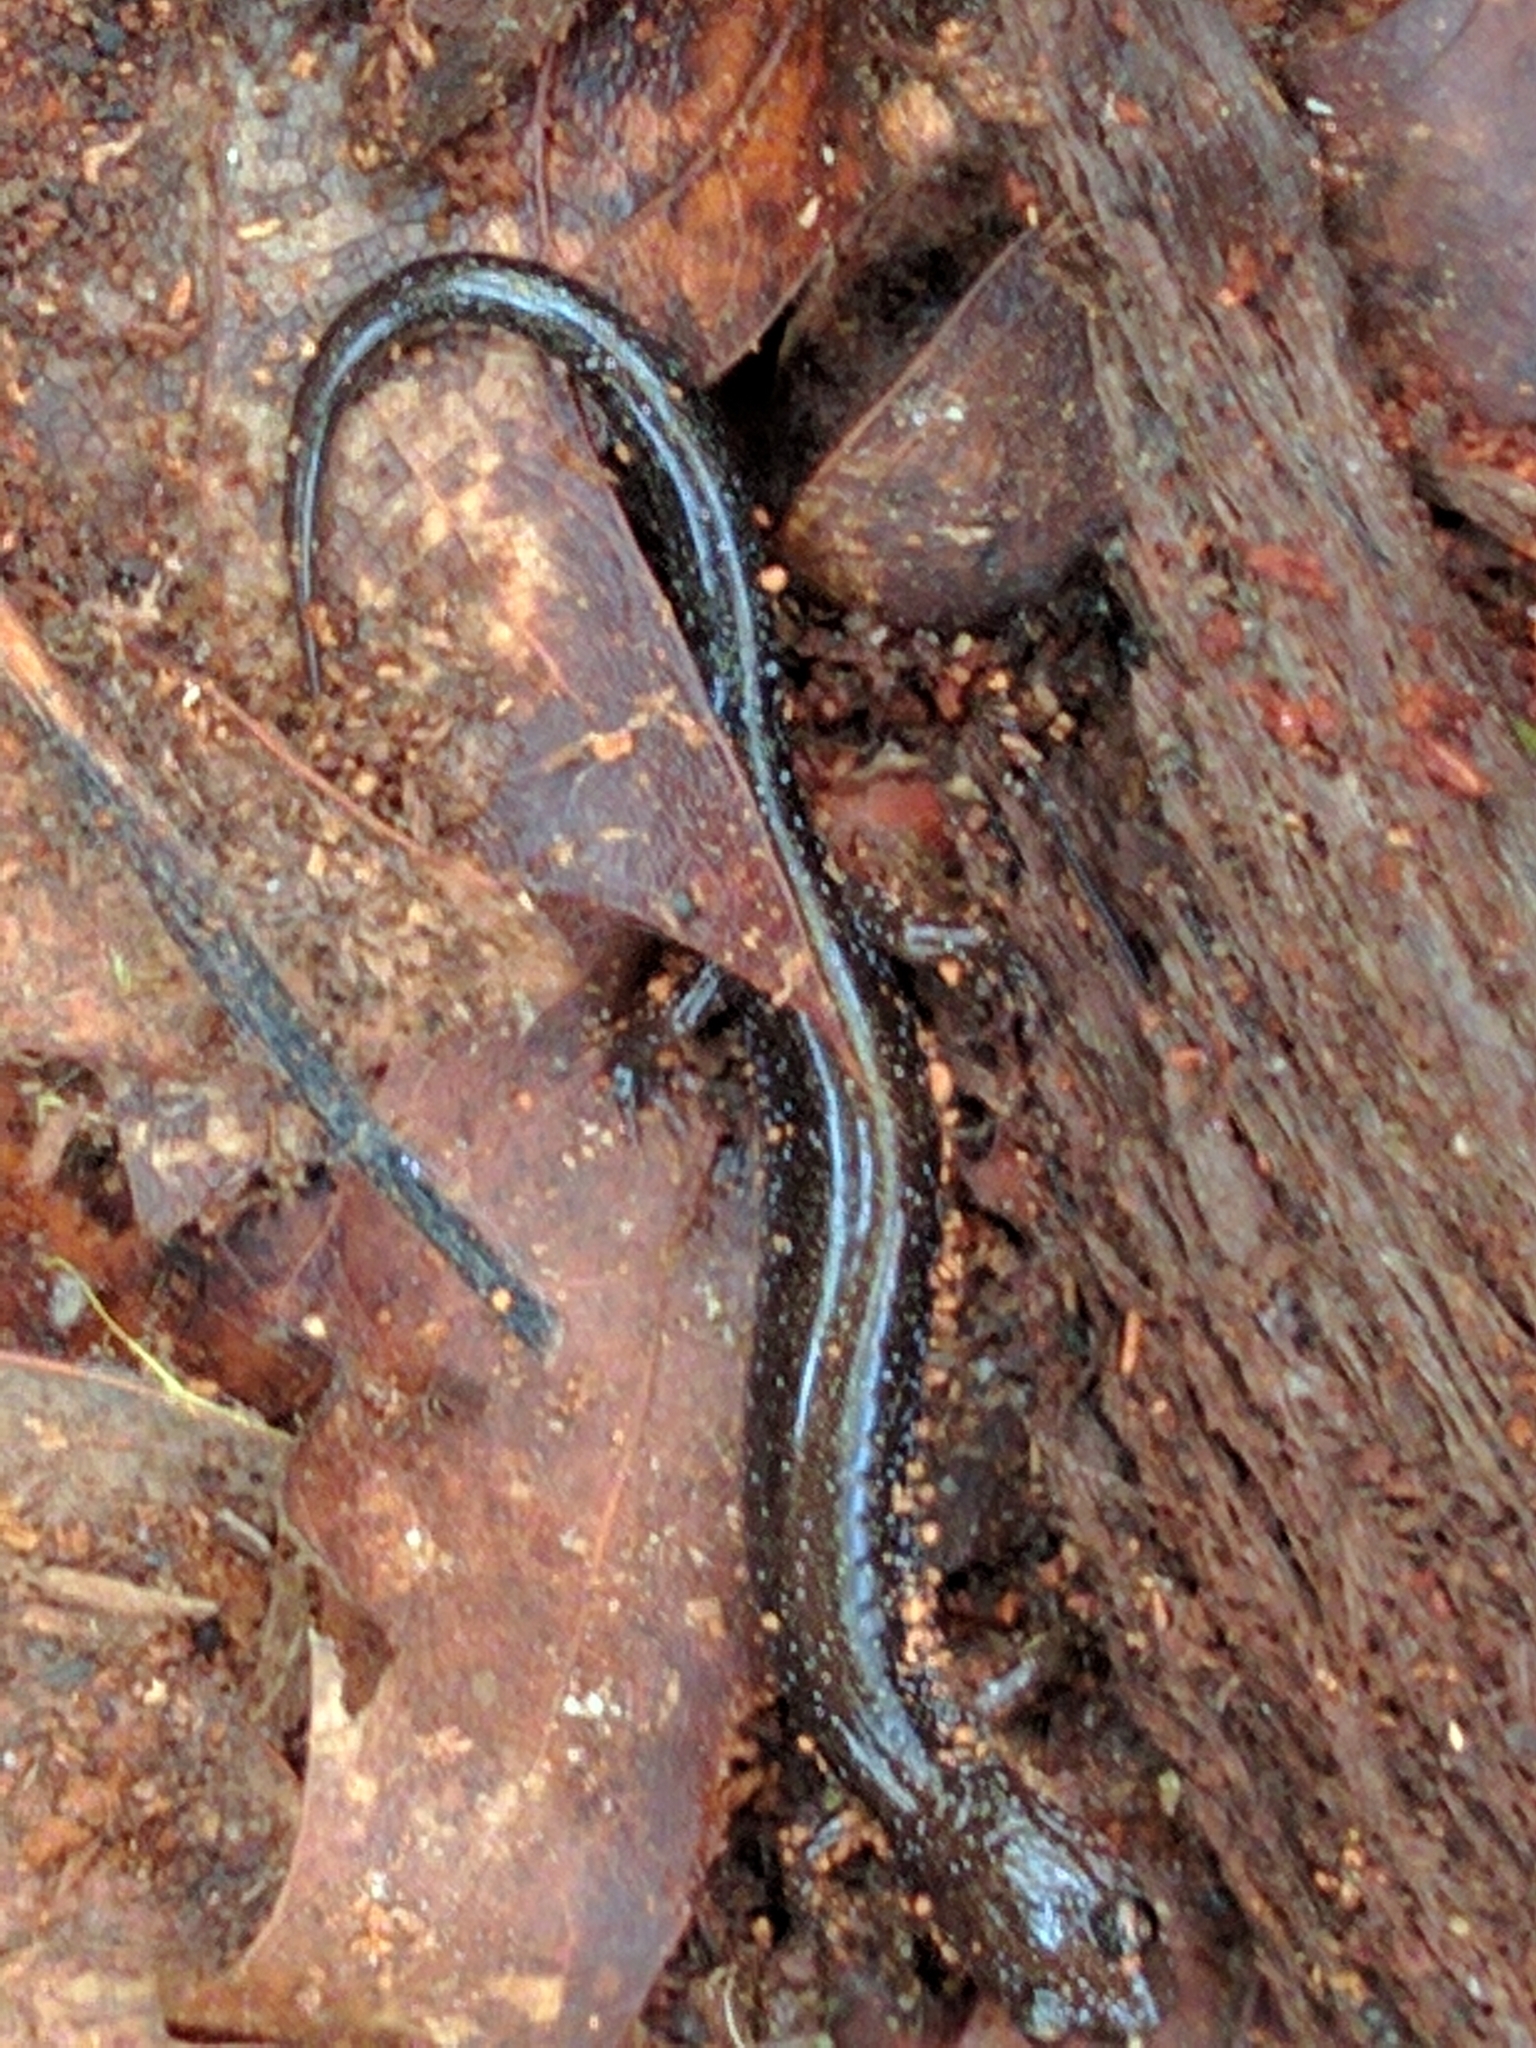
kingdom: Animalia
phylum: Chordata
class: Amphibia
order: Caudata
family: Plethodontidae
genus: Plethodon
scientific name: Plethodon cinereus
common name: Redback salamander
